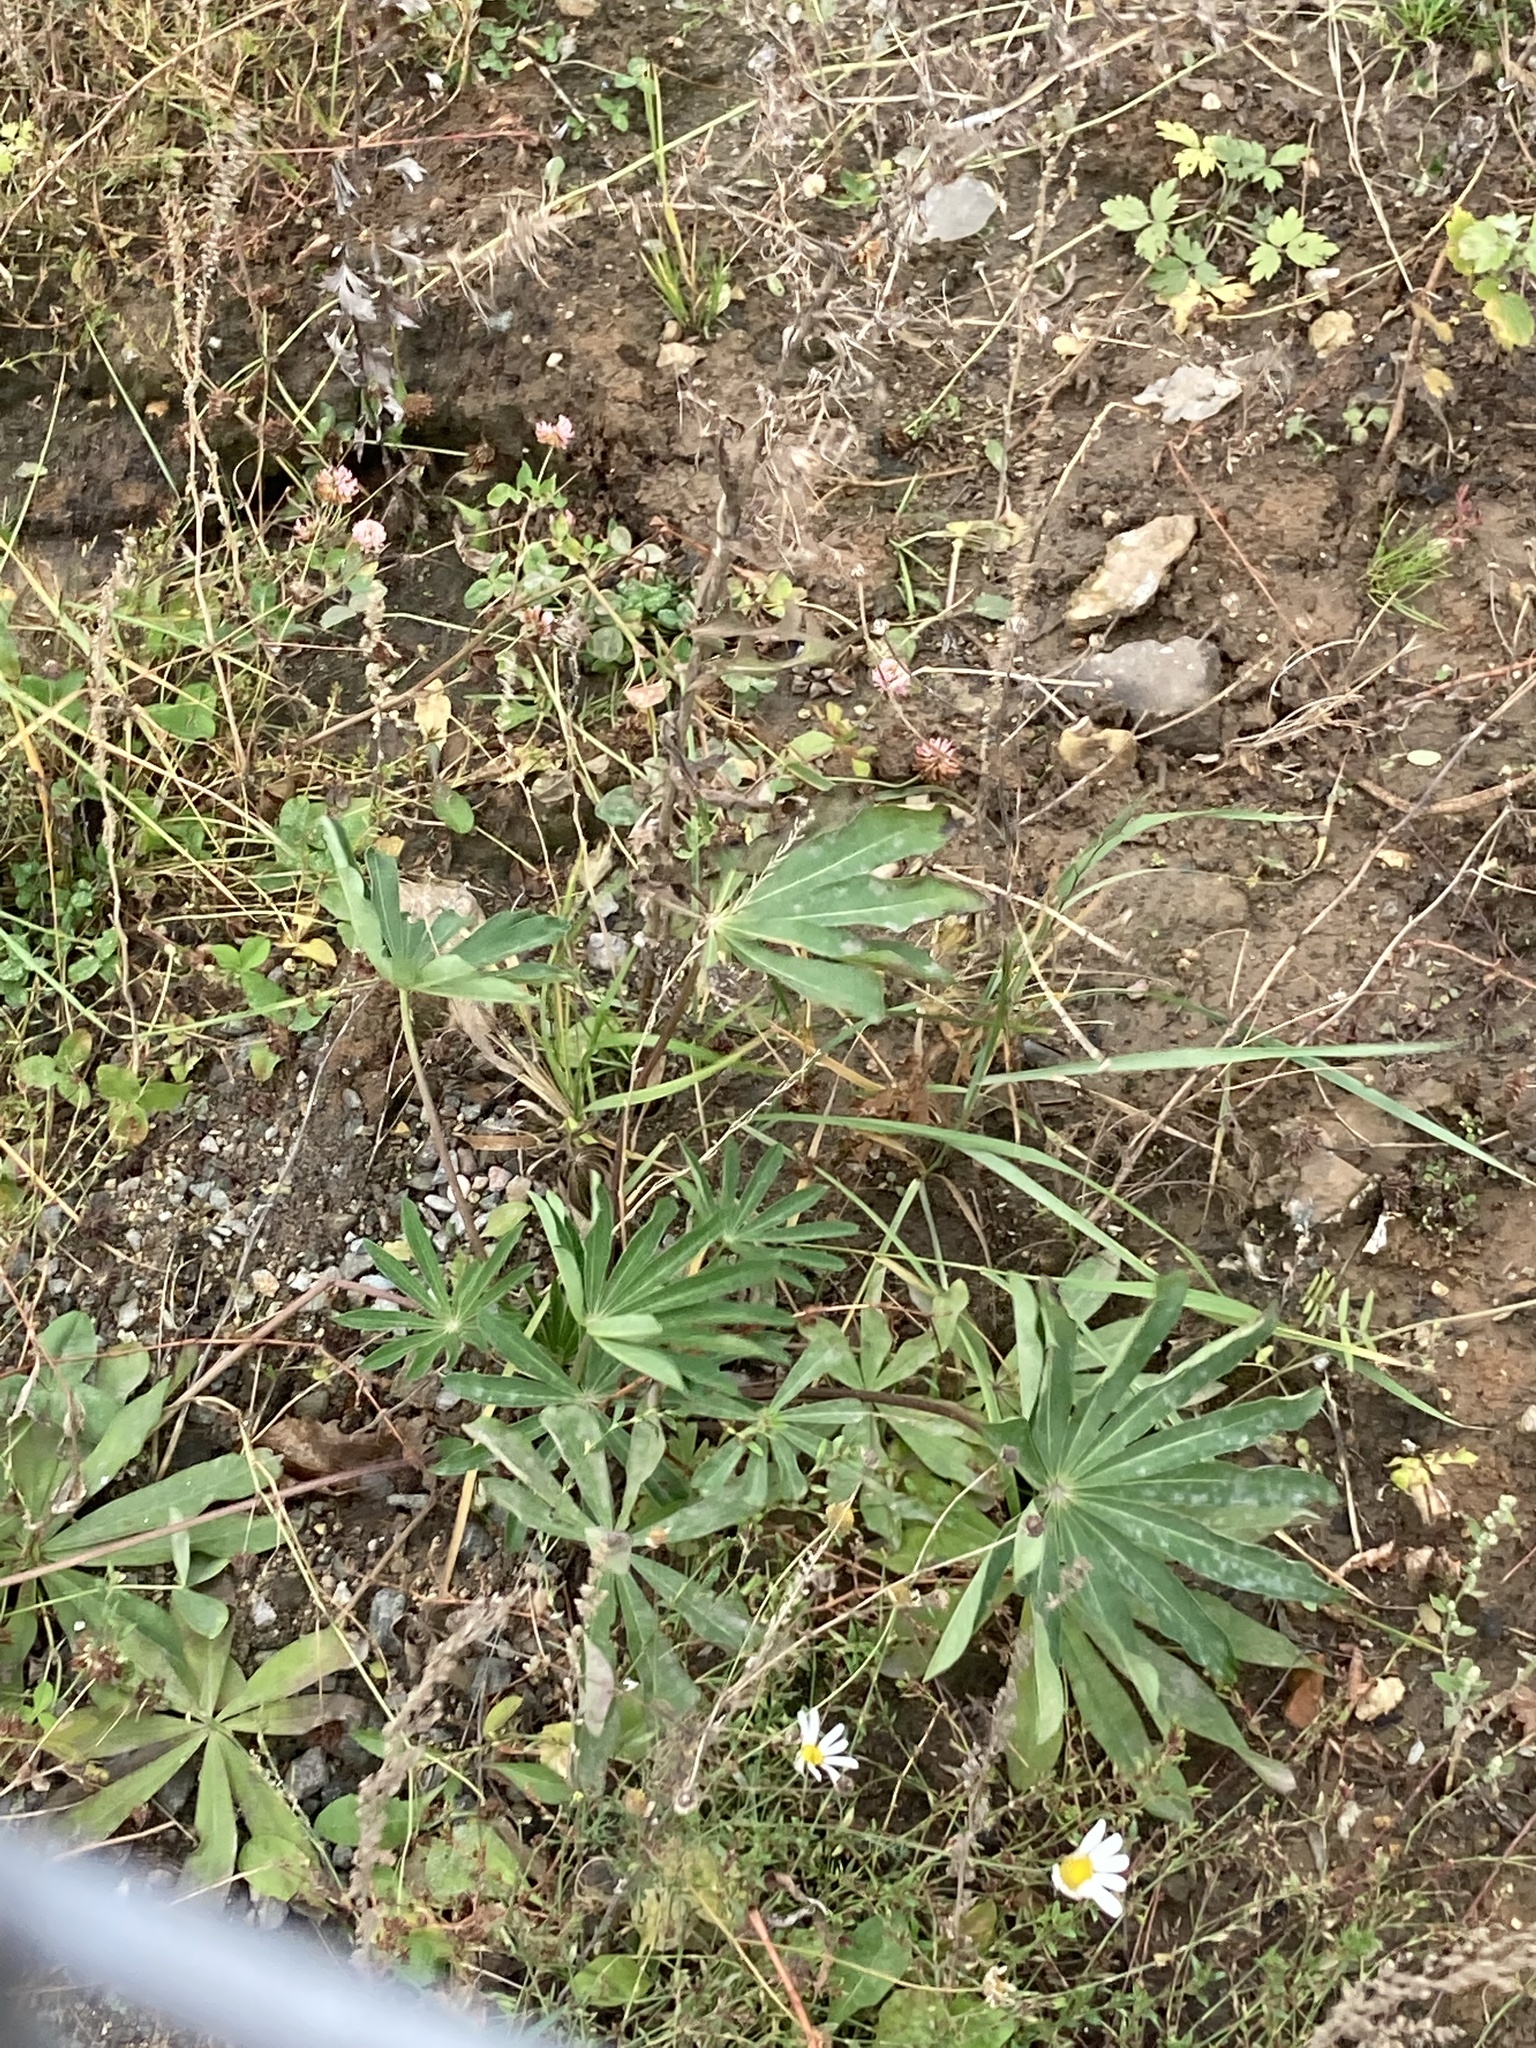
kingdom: Plantae
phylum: Tracheophyta
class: Magnoliopsida
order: Fabales
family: Fabaceae
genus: Lupinus
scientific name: Lupinus polyphyllus
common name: Garden lupin
